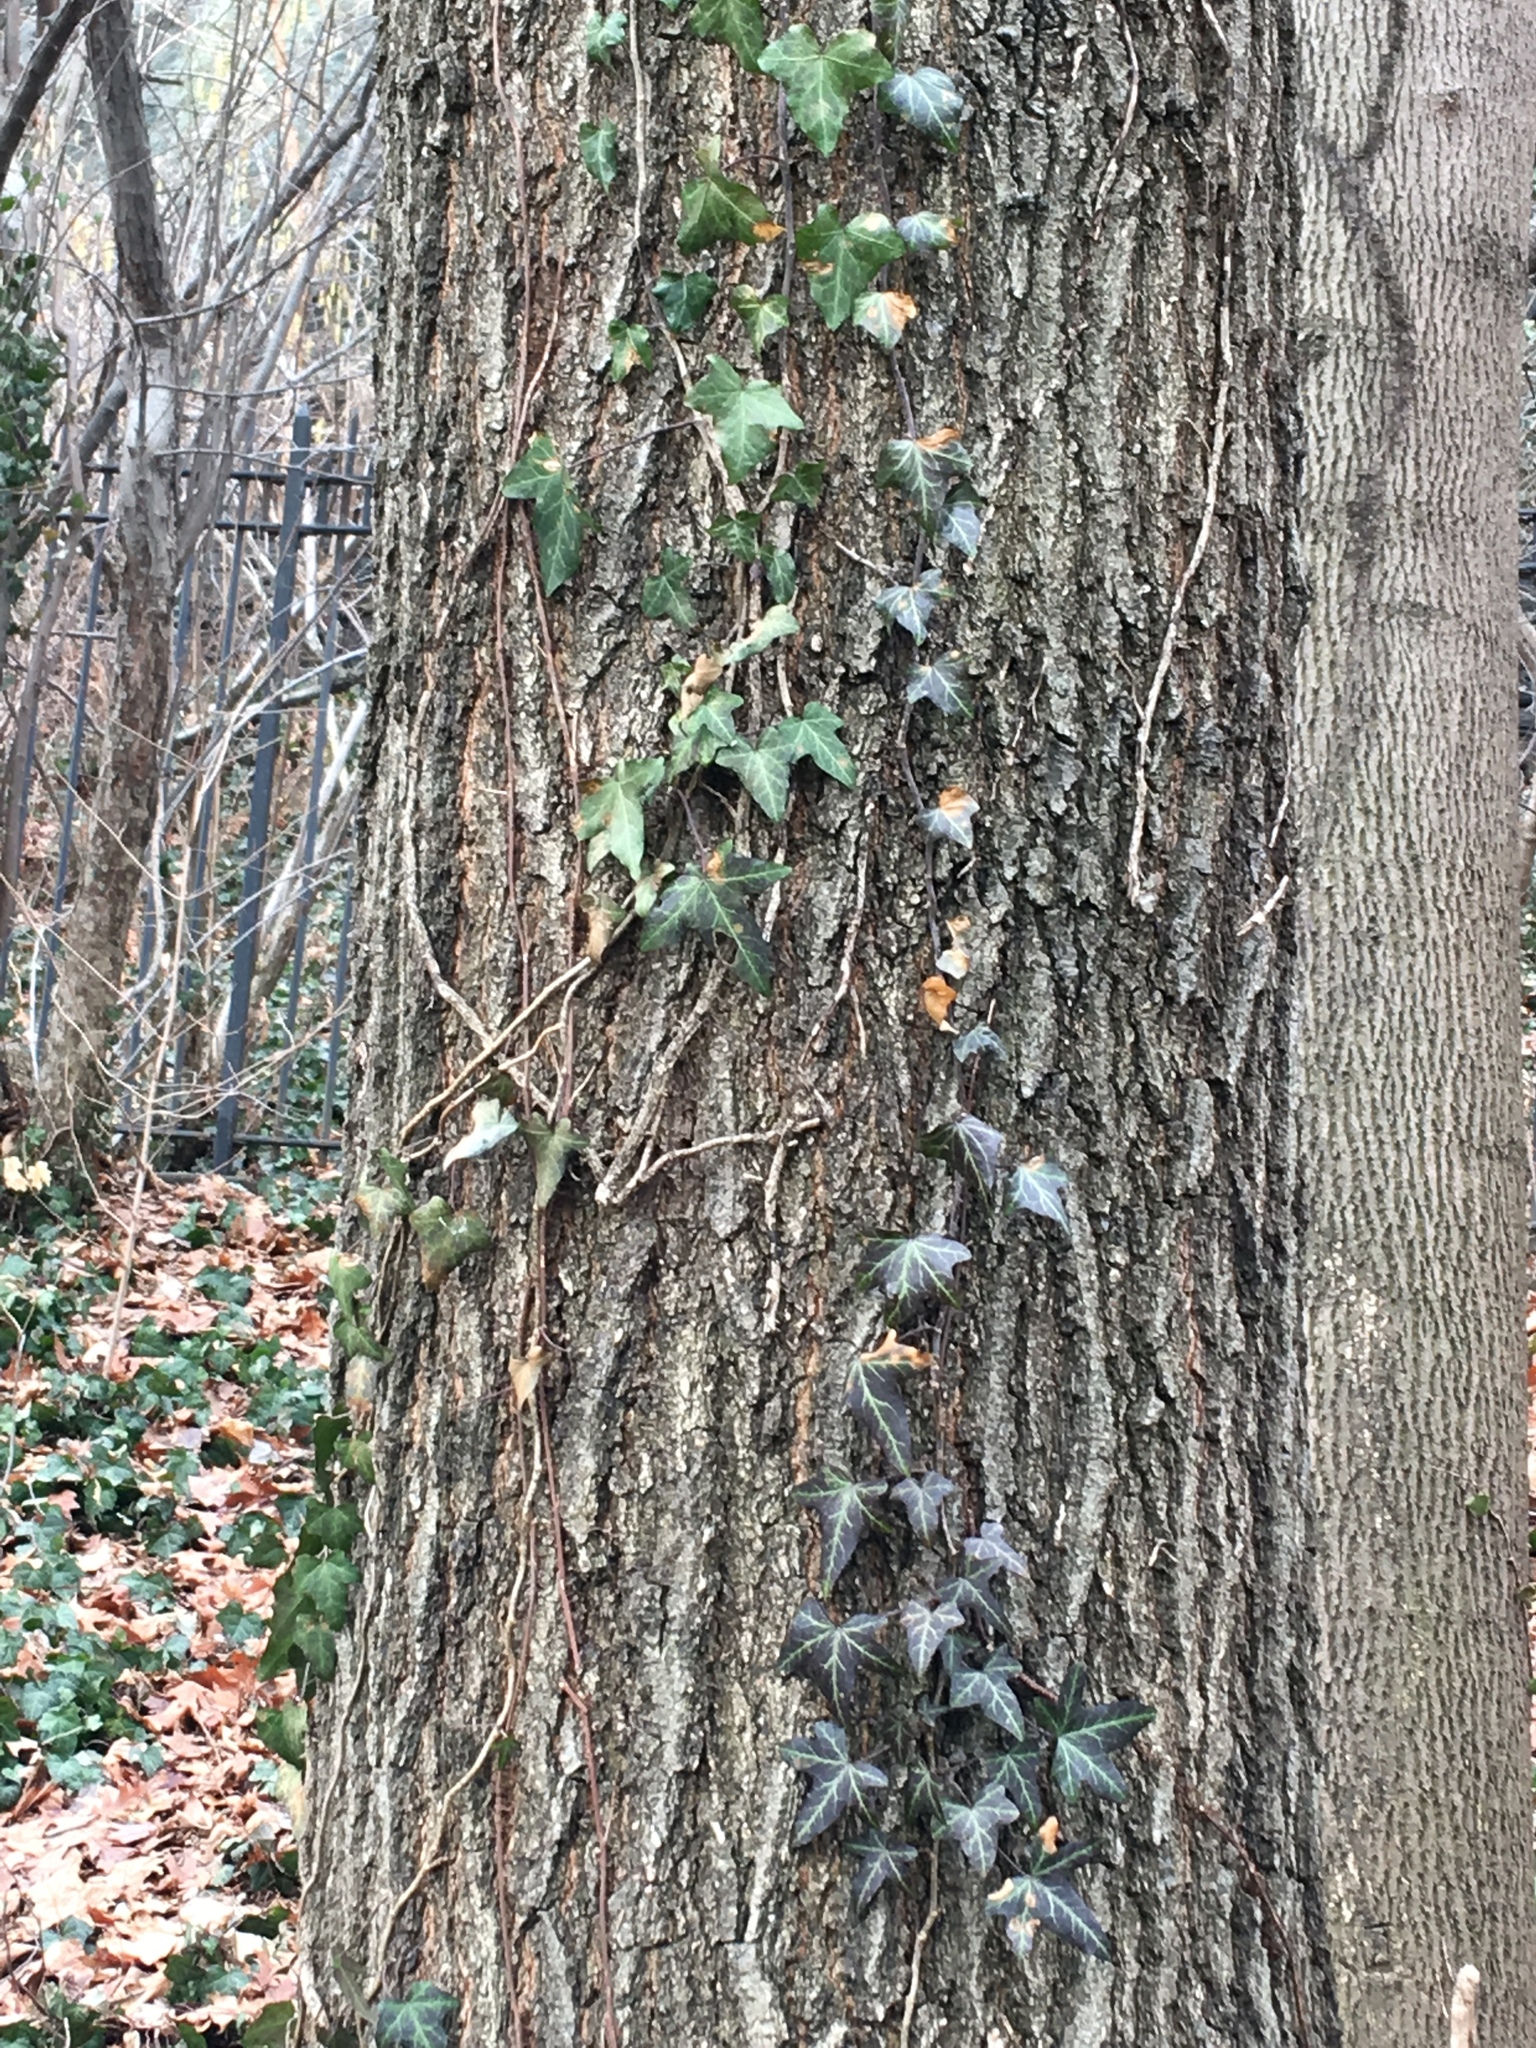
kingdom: Plantae
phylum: Tracheophyta
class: Magnoliopsida
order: Apiales
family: Araliaceae
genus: Hedera
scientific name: Hedera helix
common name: Ivy
